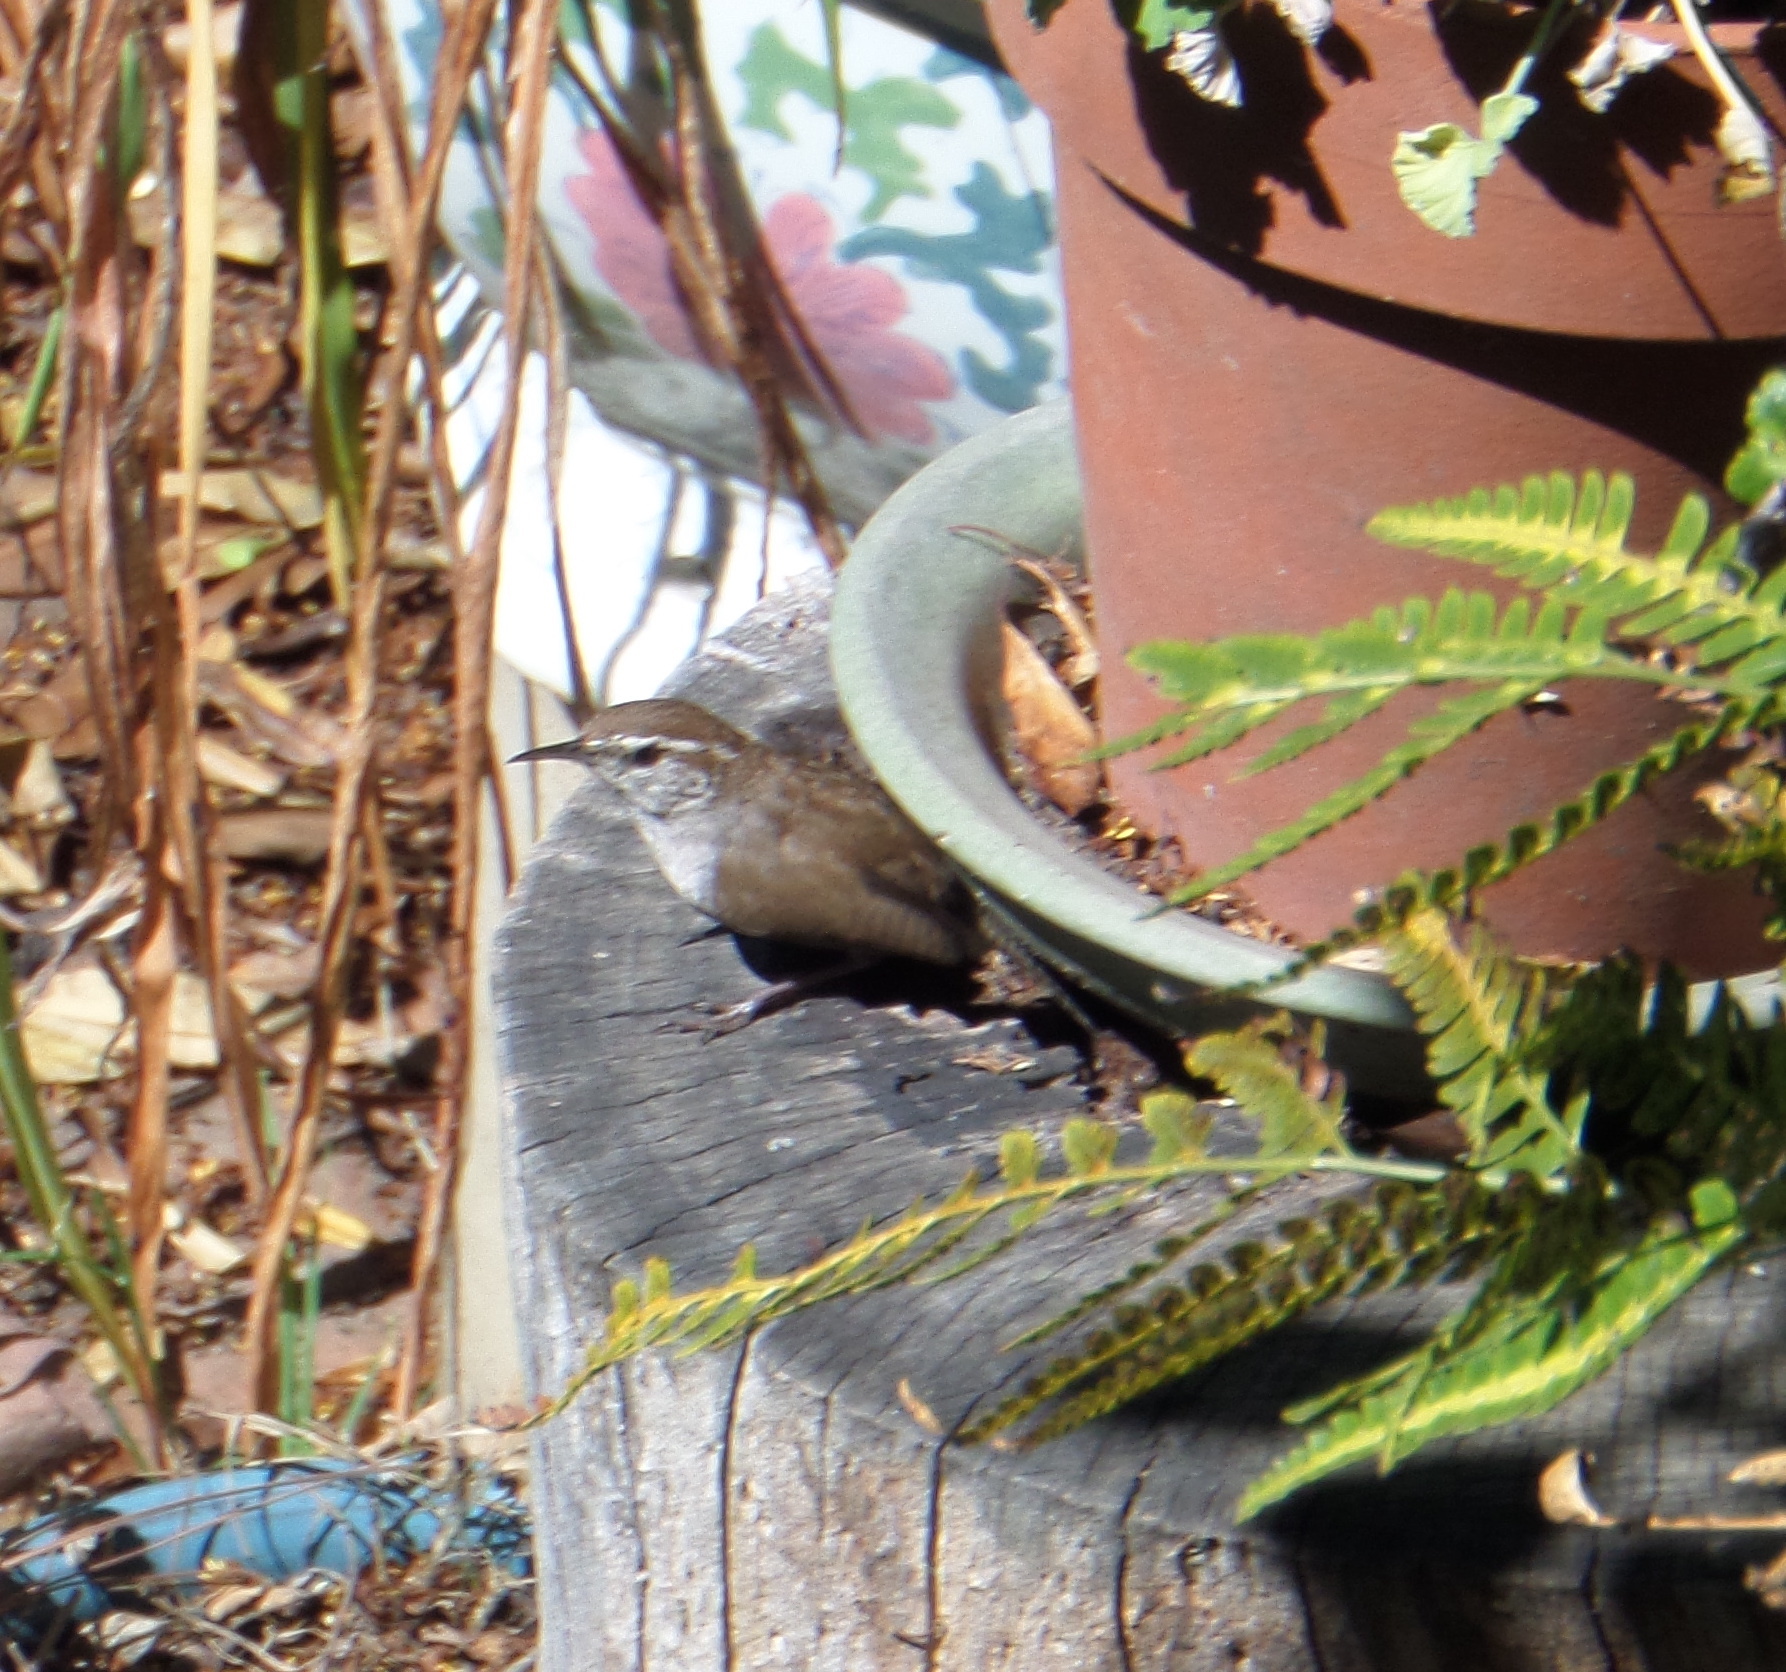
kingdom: Animalia
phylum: Chordata
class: Aves
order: Passeriformes
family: Troglodytidae
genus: Thryomanes
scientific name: Thryomanes bewickii
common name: Bewick's wren
